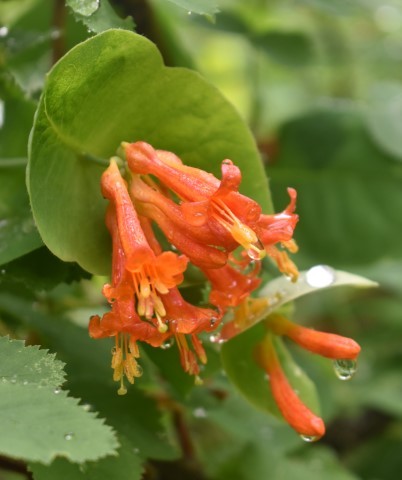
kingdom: Plantae
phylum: Tracheophyta
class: Magnoliopsida
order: Dipsacales
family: Caprifoliaceae
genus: Lonicera
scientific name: Lonicera ciliosa
